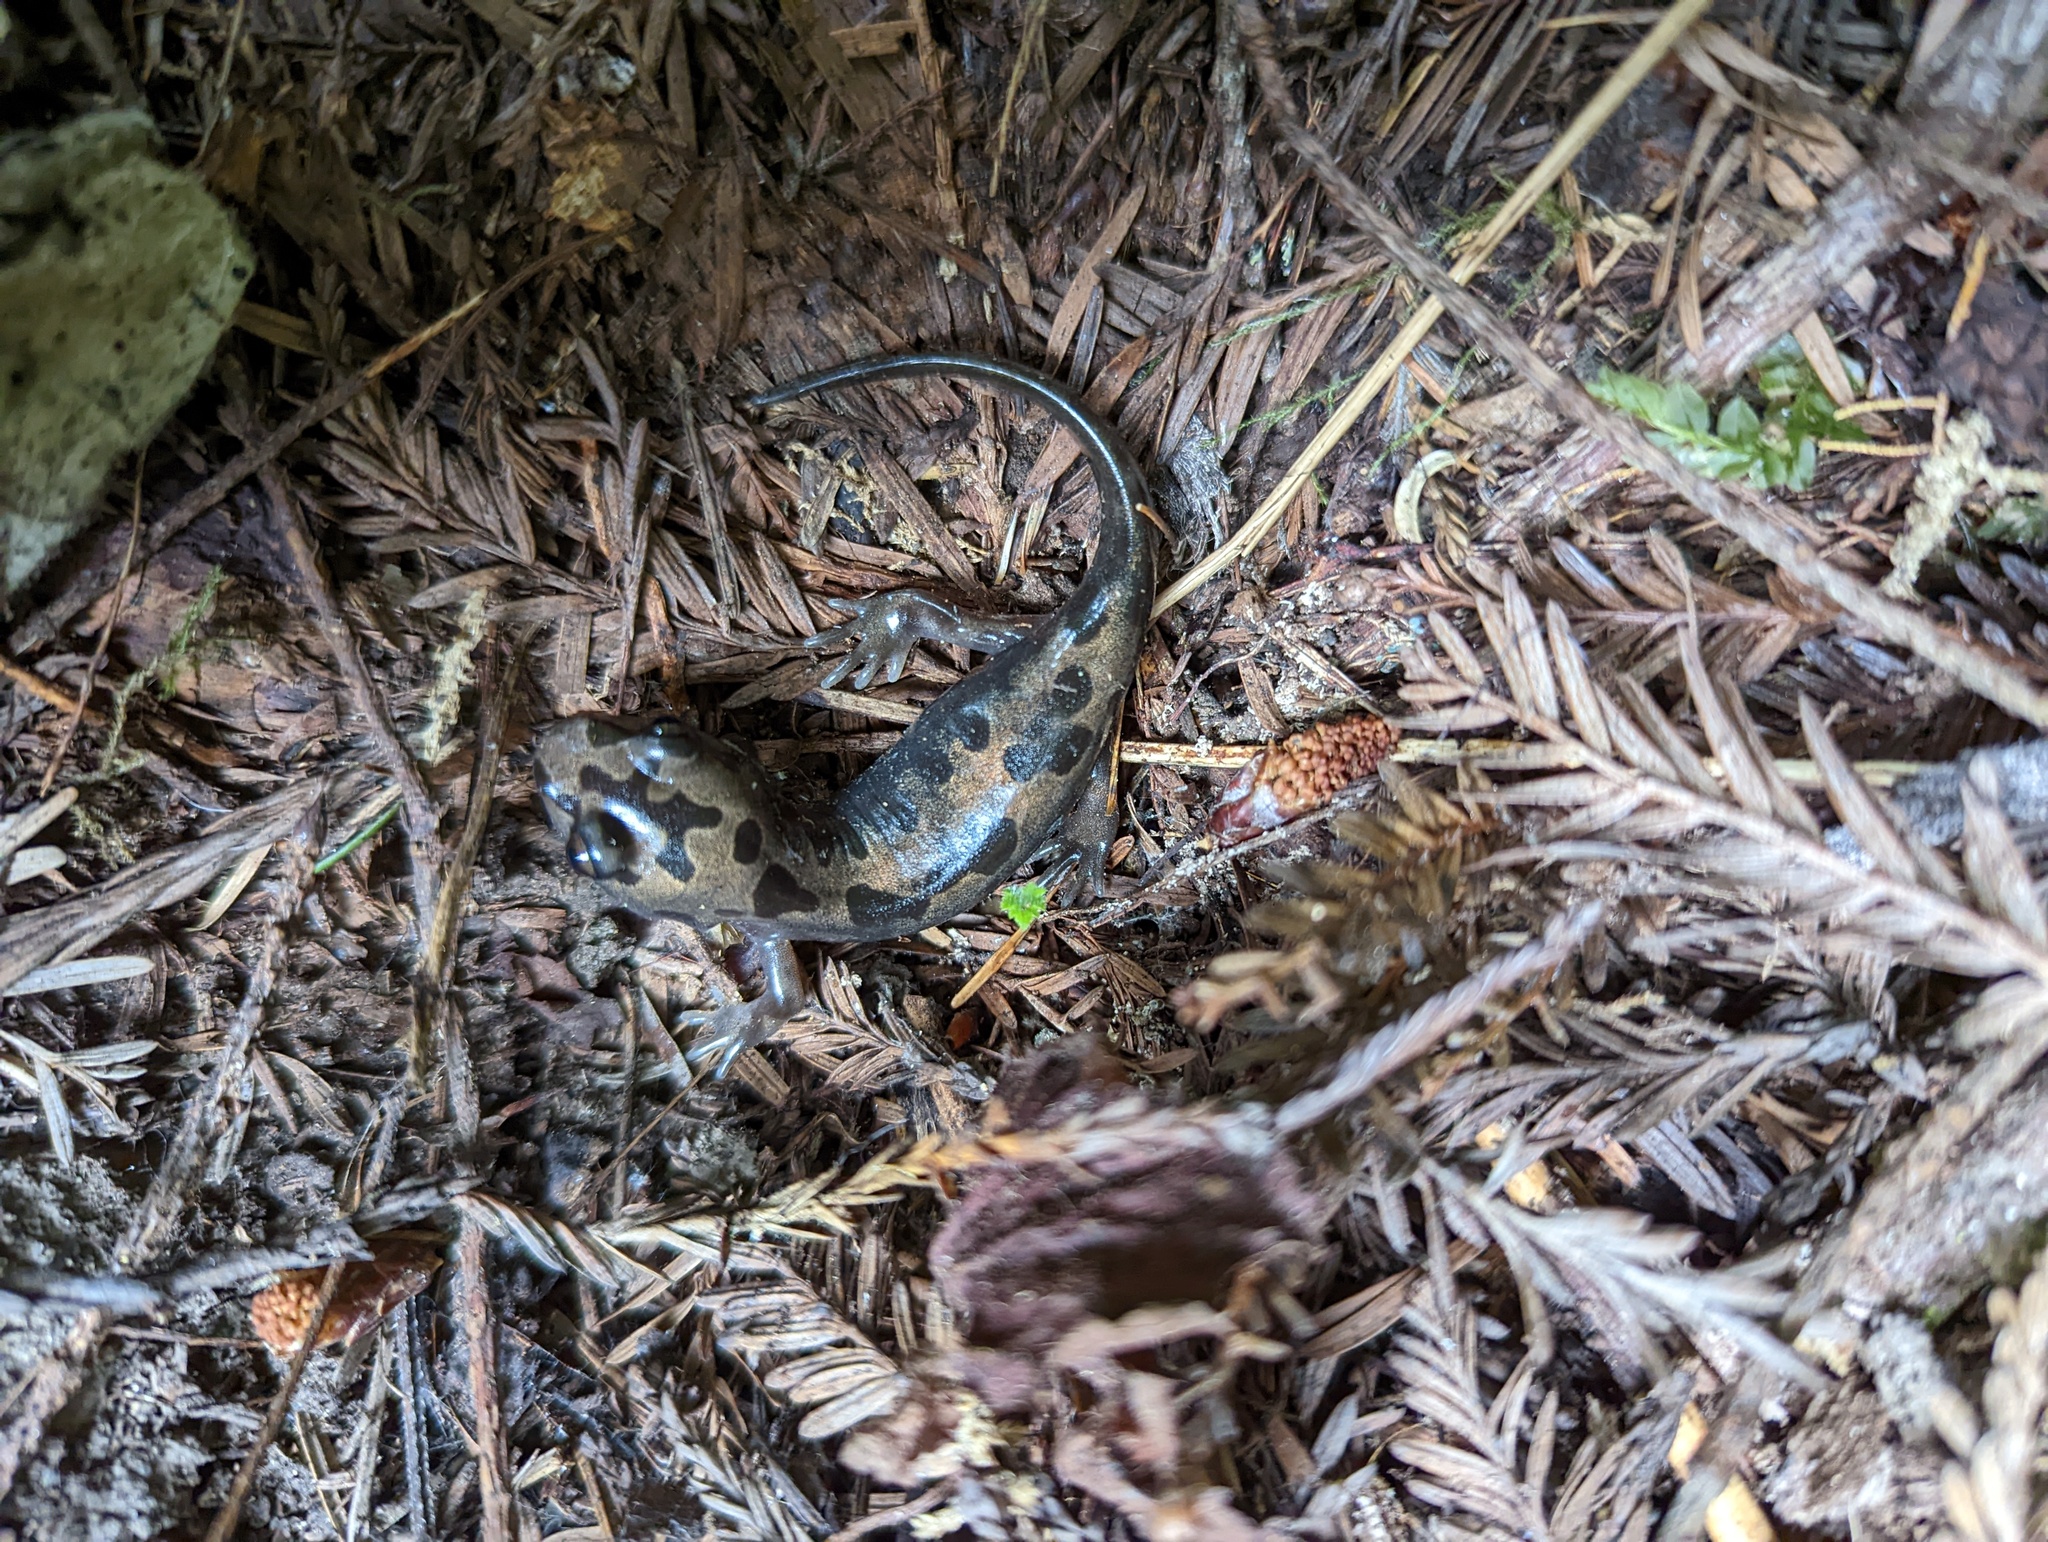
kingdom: Animalia
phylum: Chordata
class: Amphibia
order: Caudata
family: Ambystomatidae
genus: Dicamptodon
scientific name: Dicamptodon tenebrosus
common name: Coastal giant salamander
